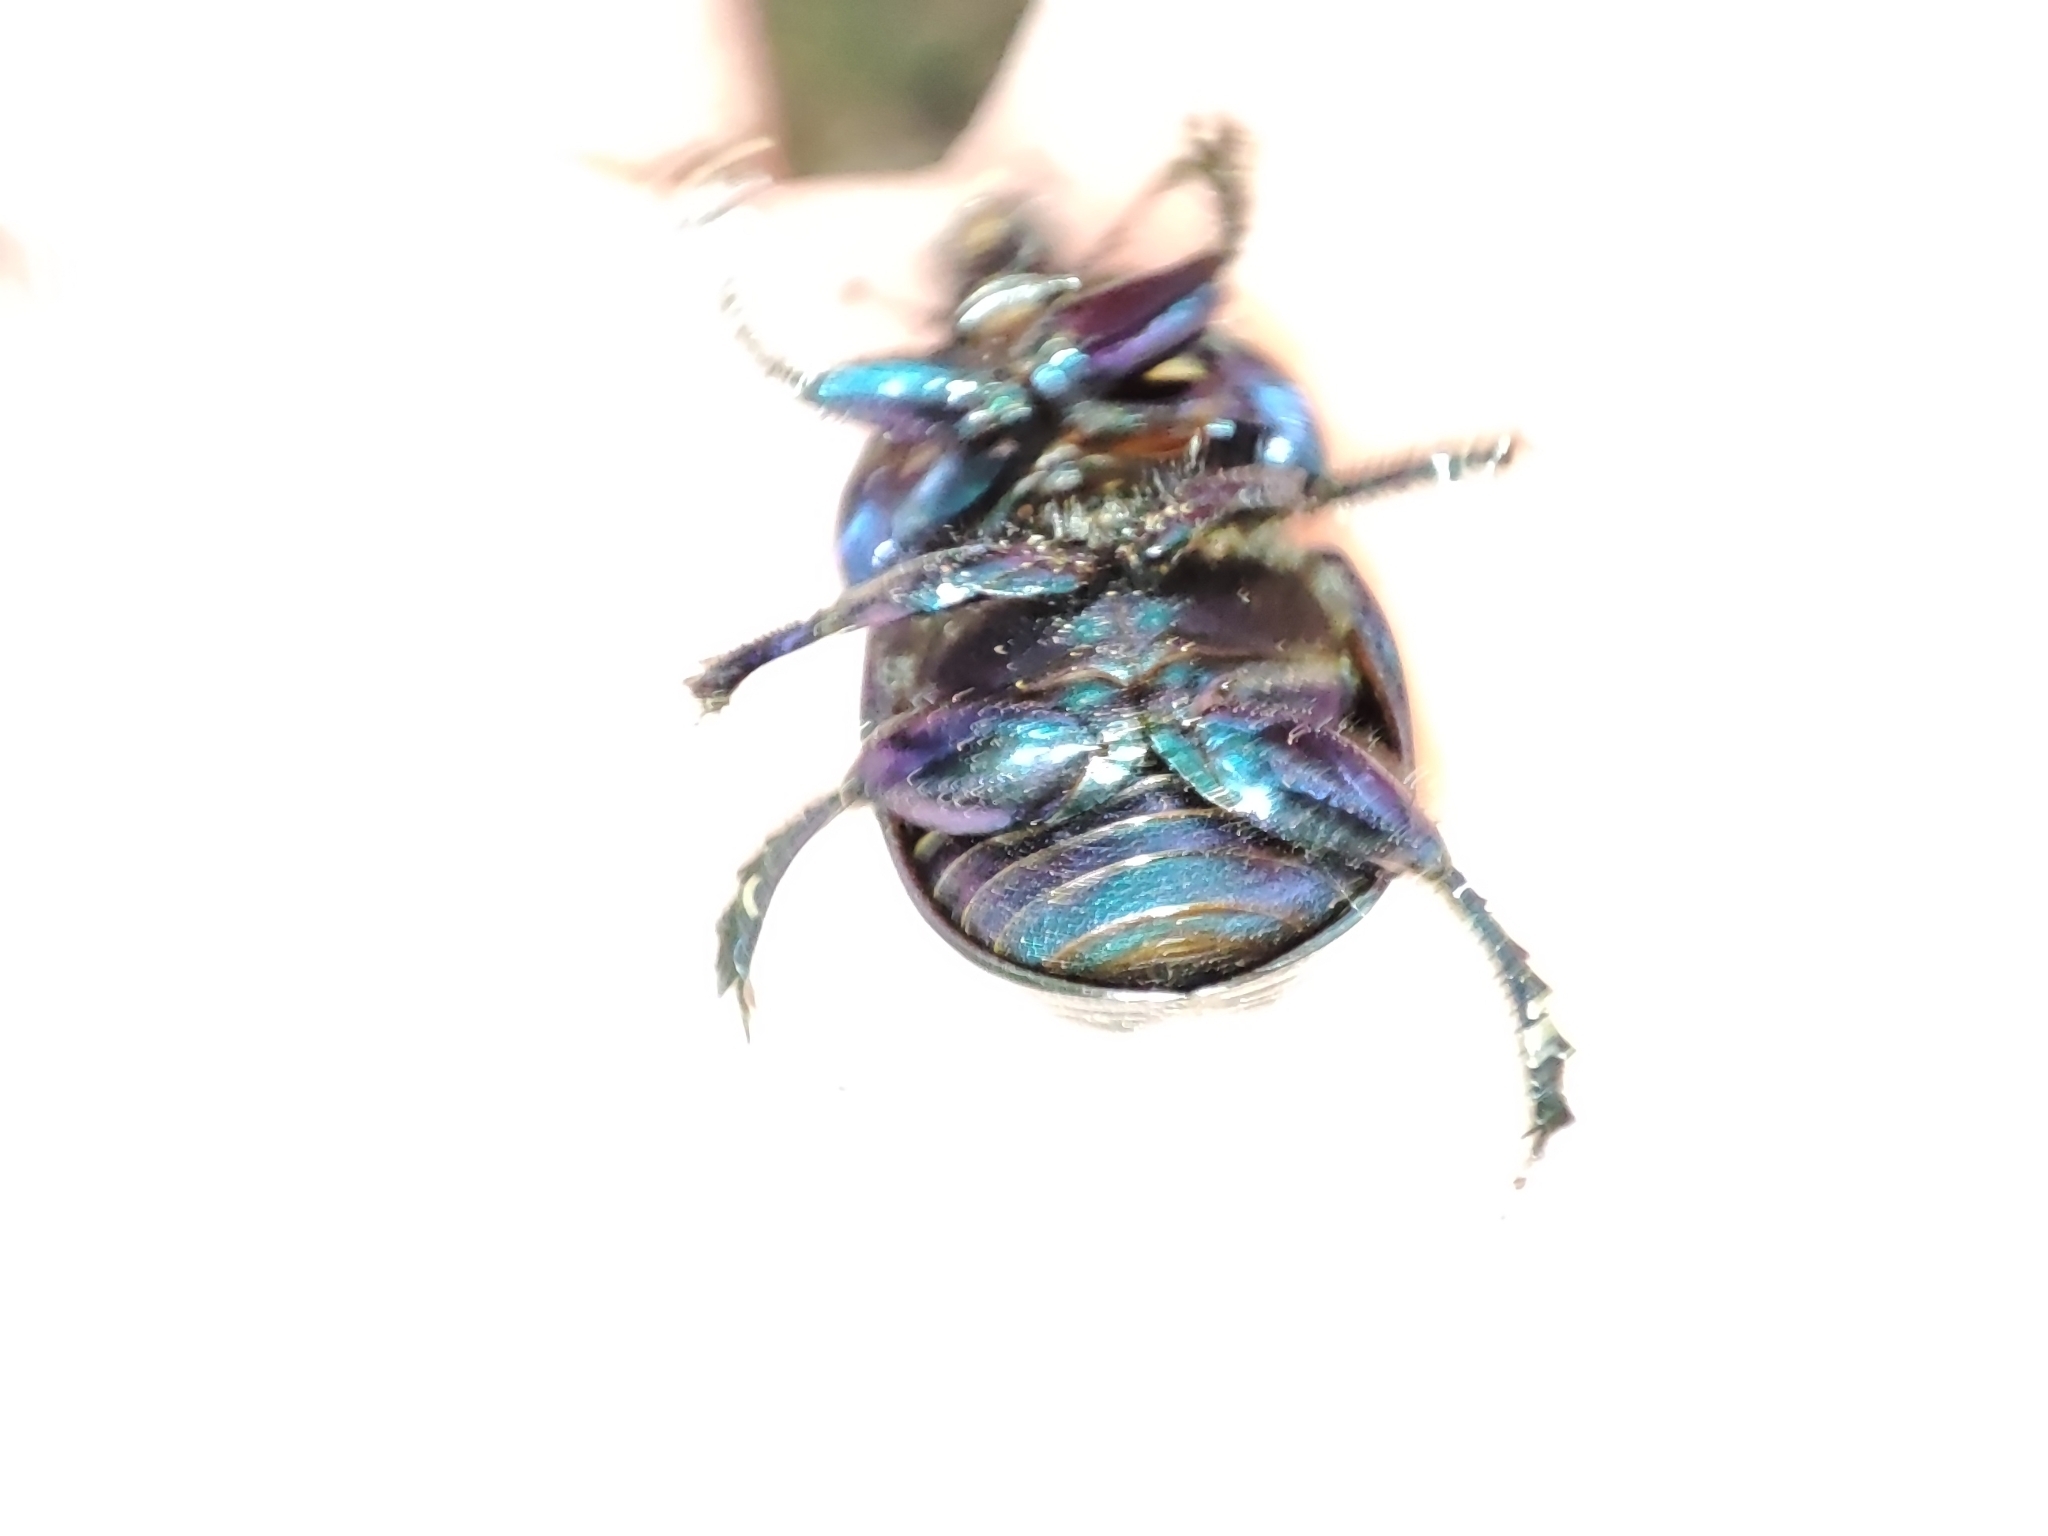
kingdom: Animalia
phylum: Arthropoda
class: Insecta
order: Coleoptera
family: Geotrupidae
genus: Anoplotrupes
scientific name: Anoplotrupes stercorosus
